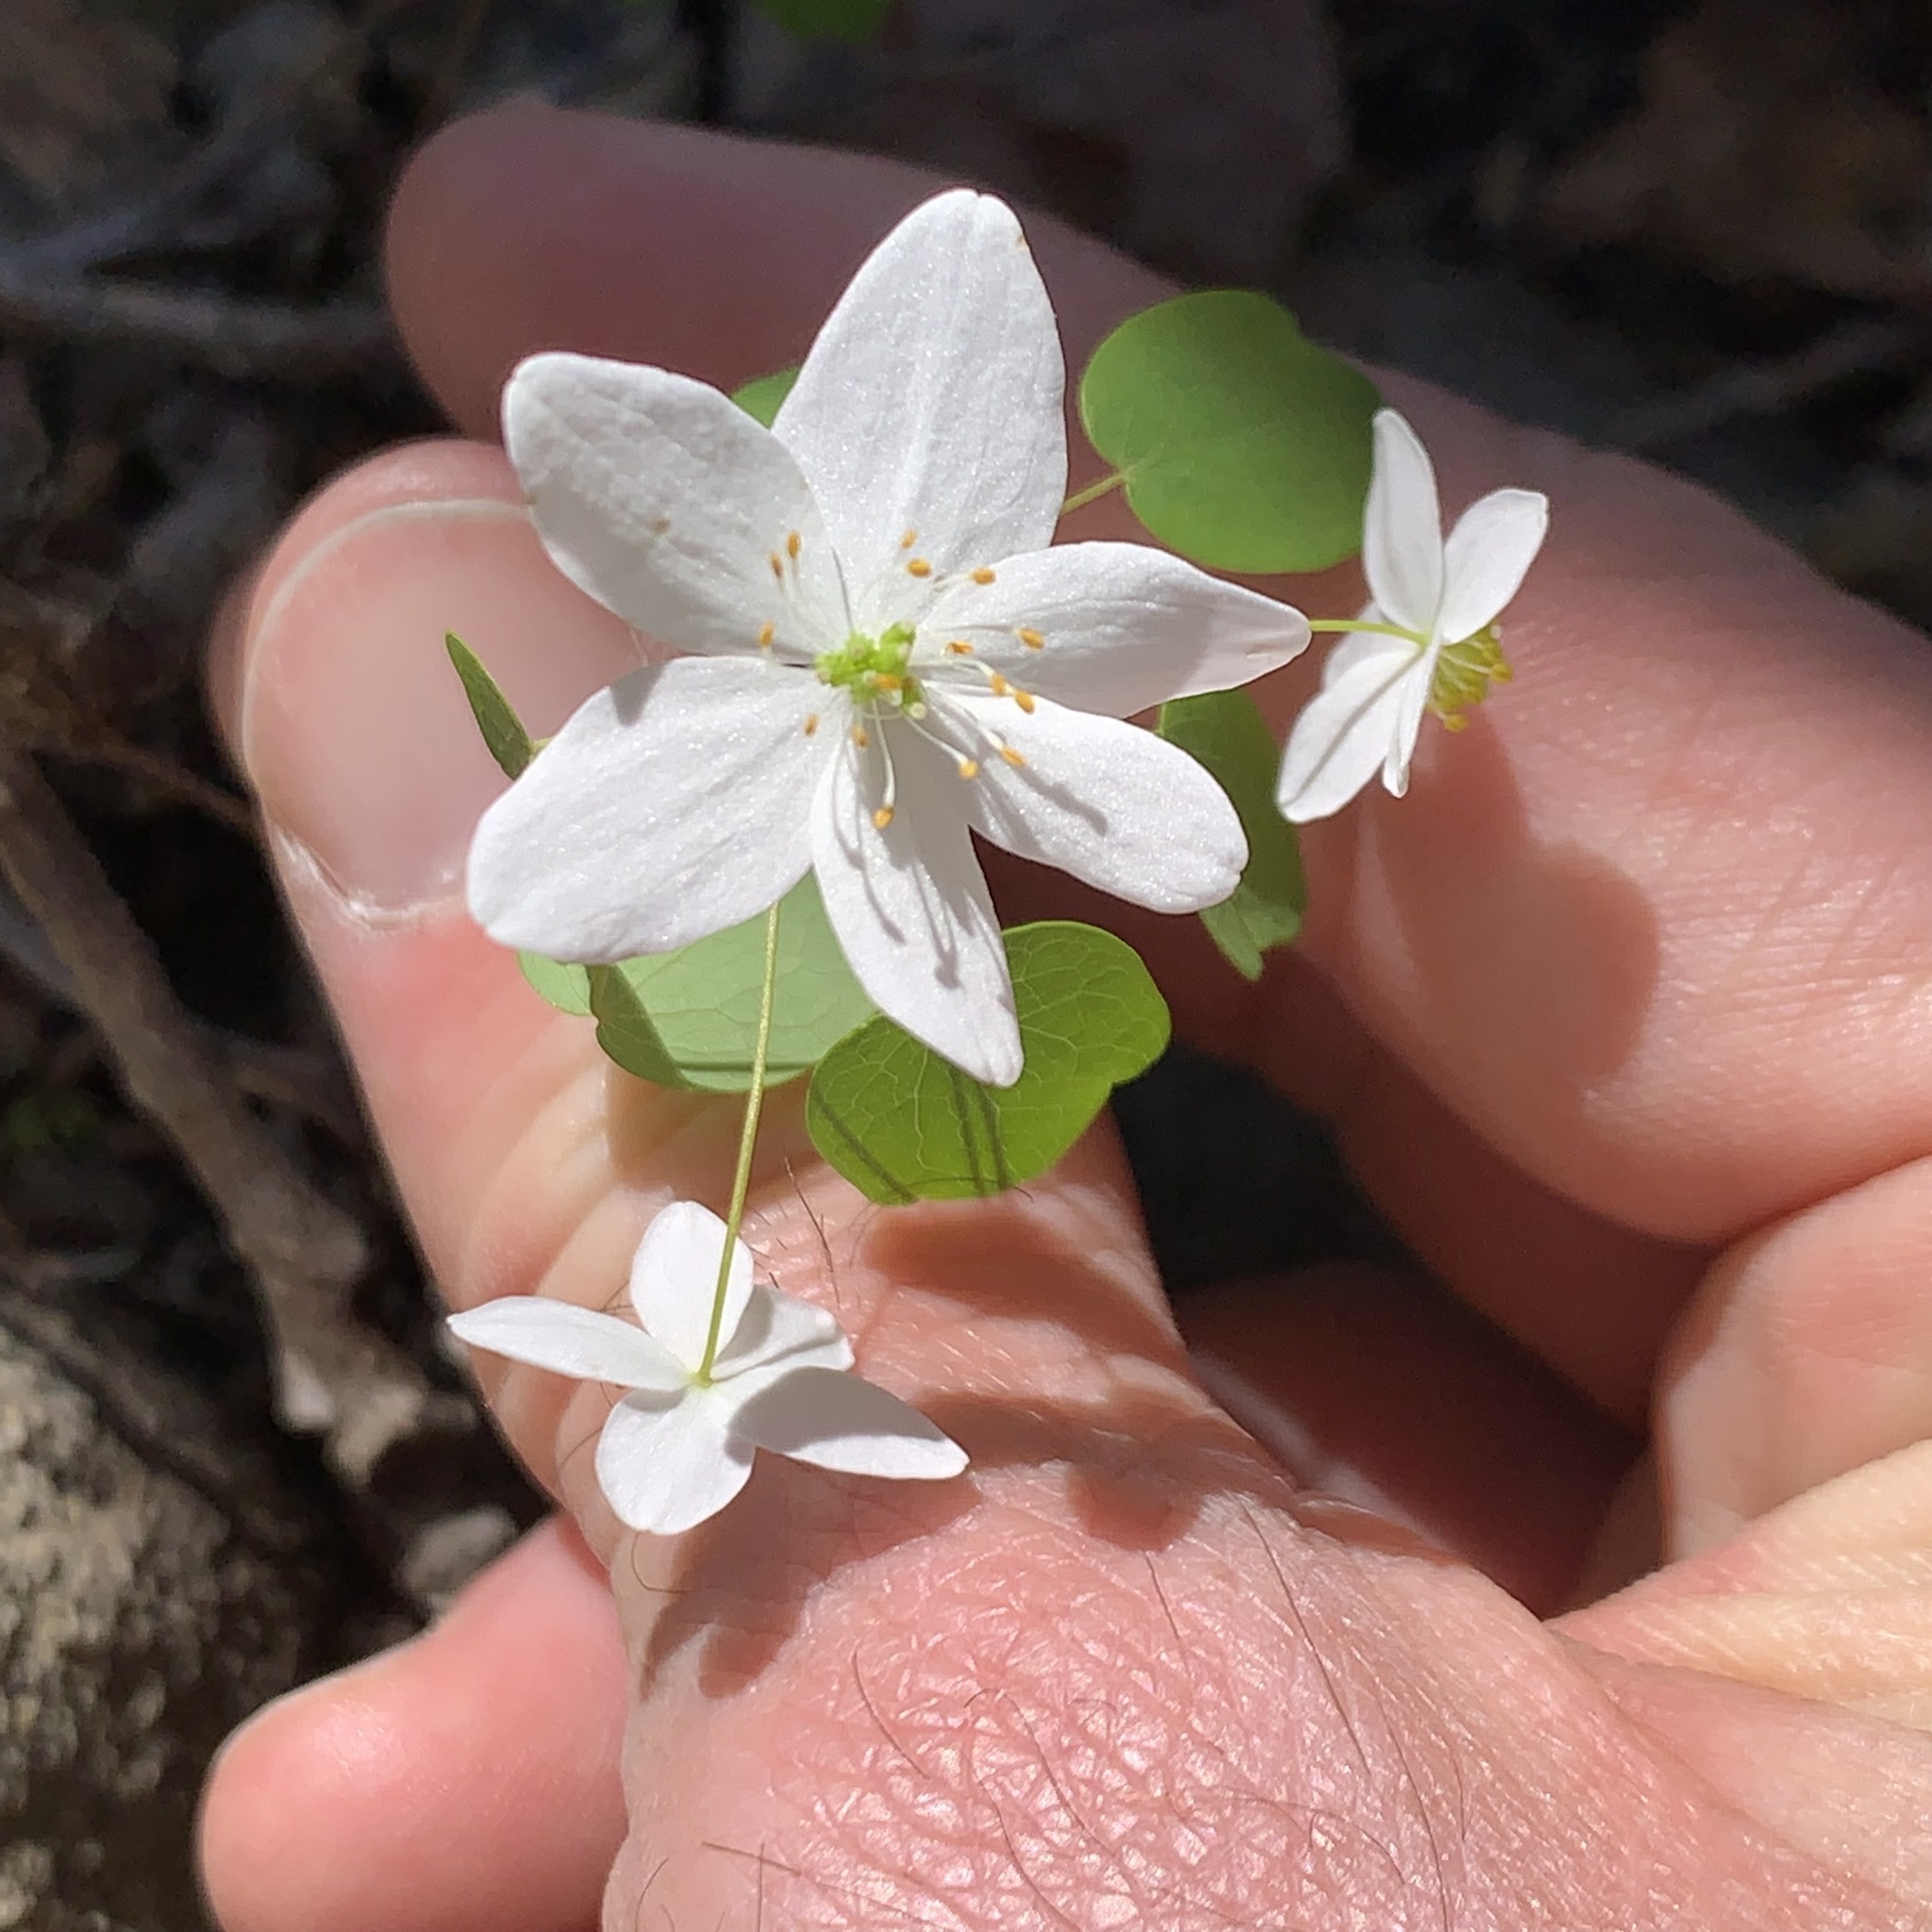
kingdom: Plantae
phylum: Tracheophyta
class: Magnoliopsida
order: Ranunculales
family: Ranunculaceae
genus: Thalictrum
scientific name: Thalictrum thalictroides
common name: Rue-anemone
